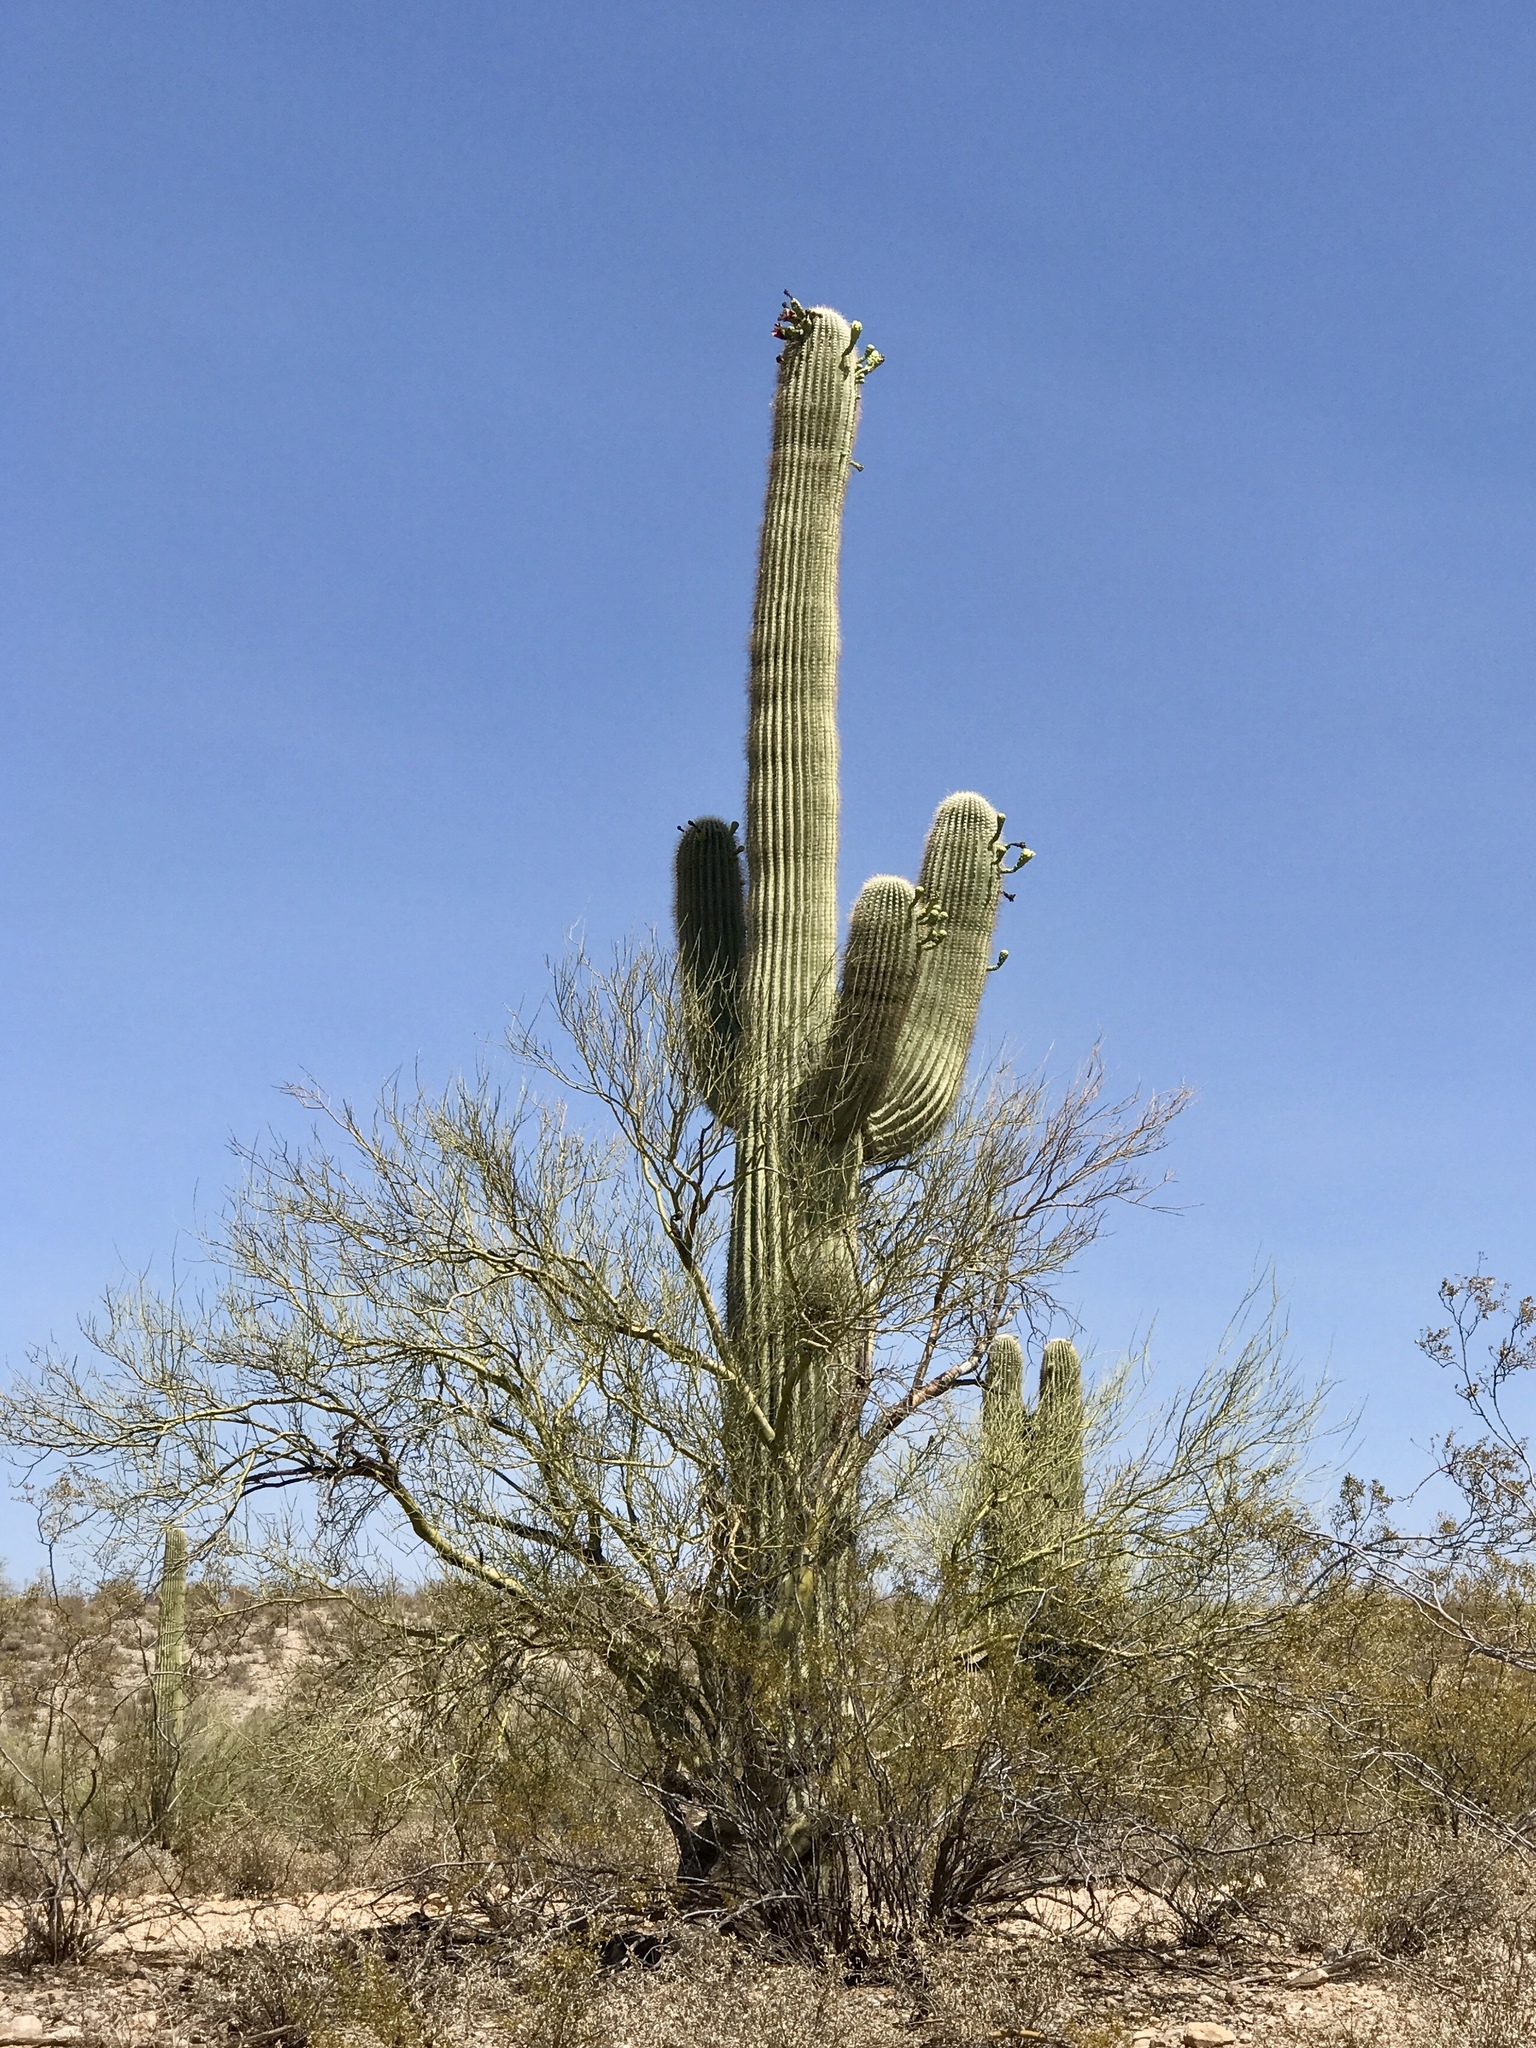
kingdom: Plantae
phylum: Tracheophyta
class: Magnoliopsida
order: Caryophyllales
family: Cactaceae
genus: Carnegiea
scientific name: Carnegiea gigantea
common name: Saguaro
